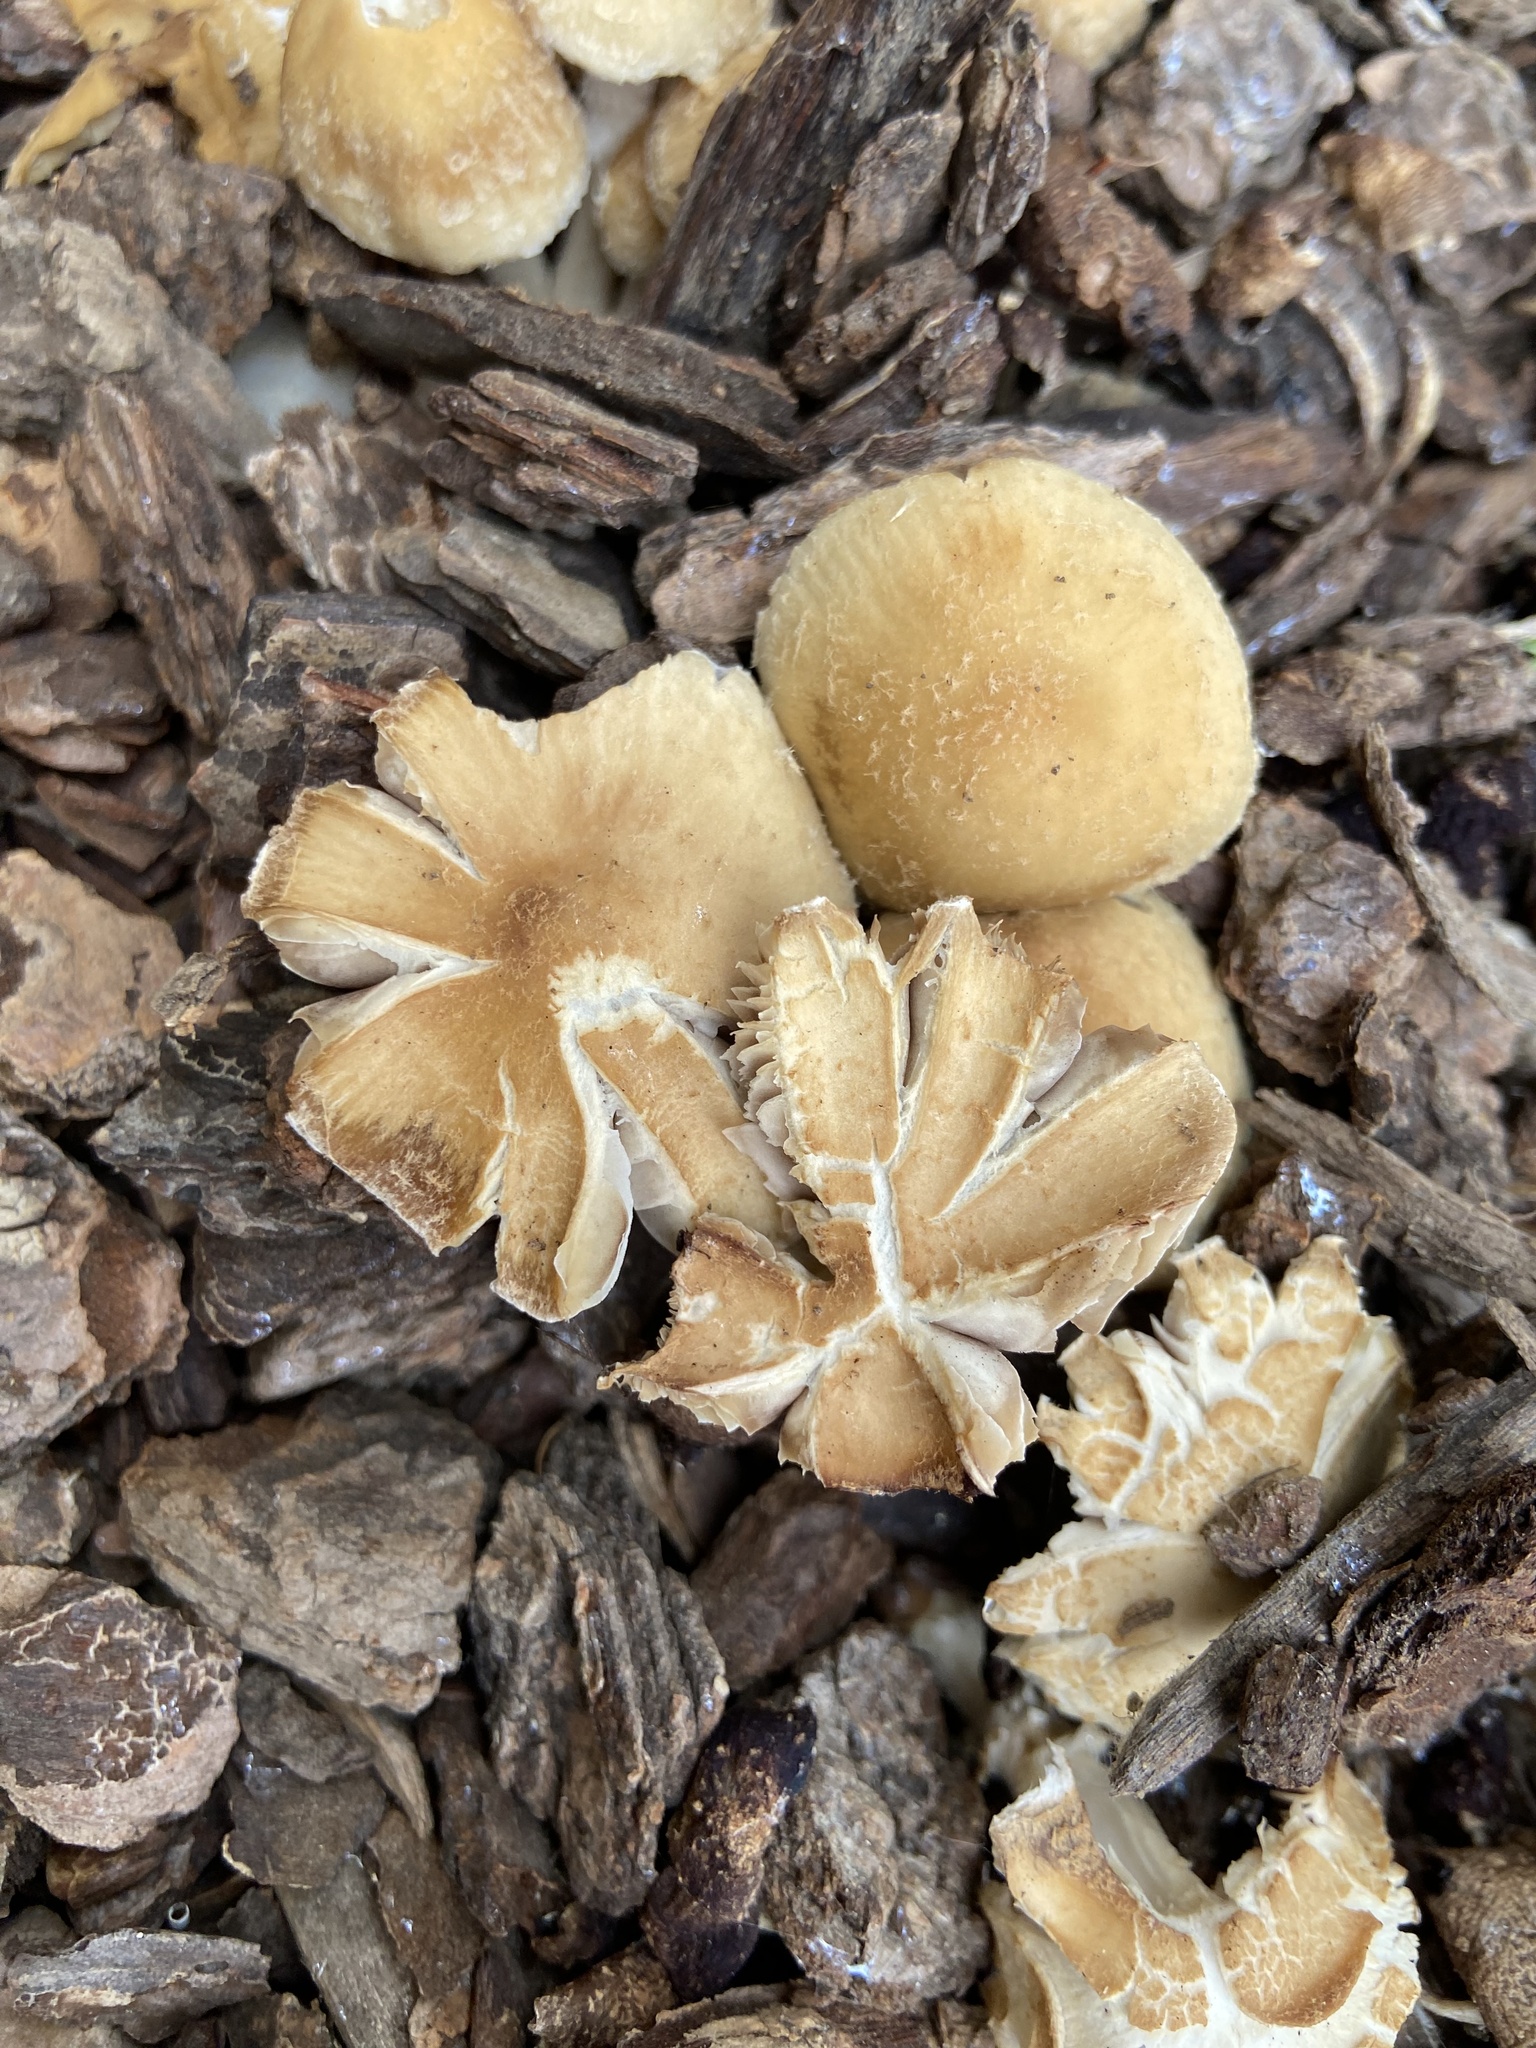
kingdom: Fungi
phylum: Basidiomycota
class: Agaricomycetes
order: Agaricales
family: Psathyrellaceae
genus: Candolleomyces
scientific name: Candolleomyces candolleanus
